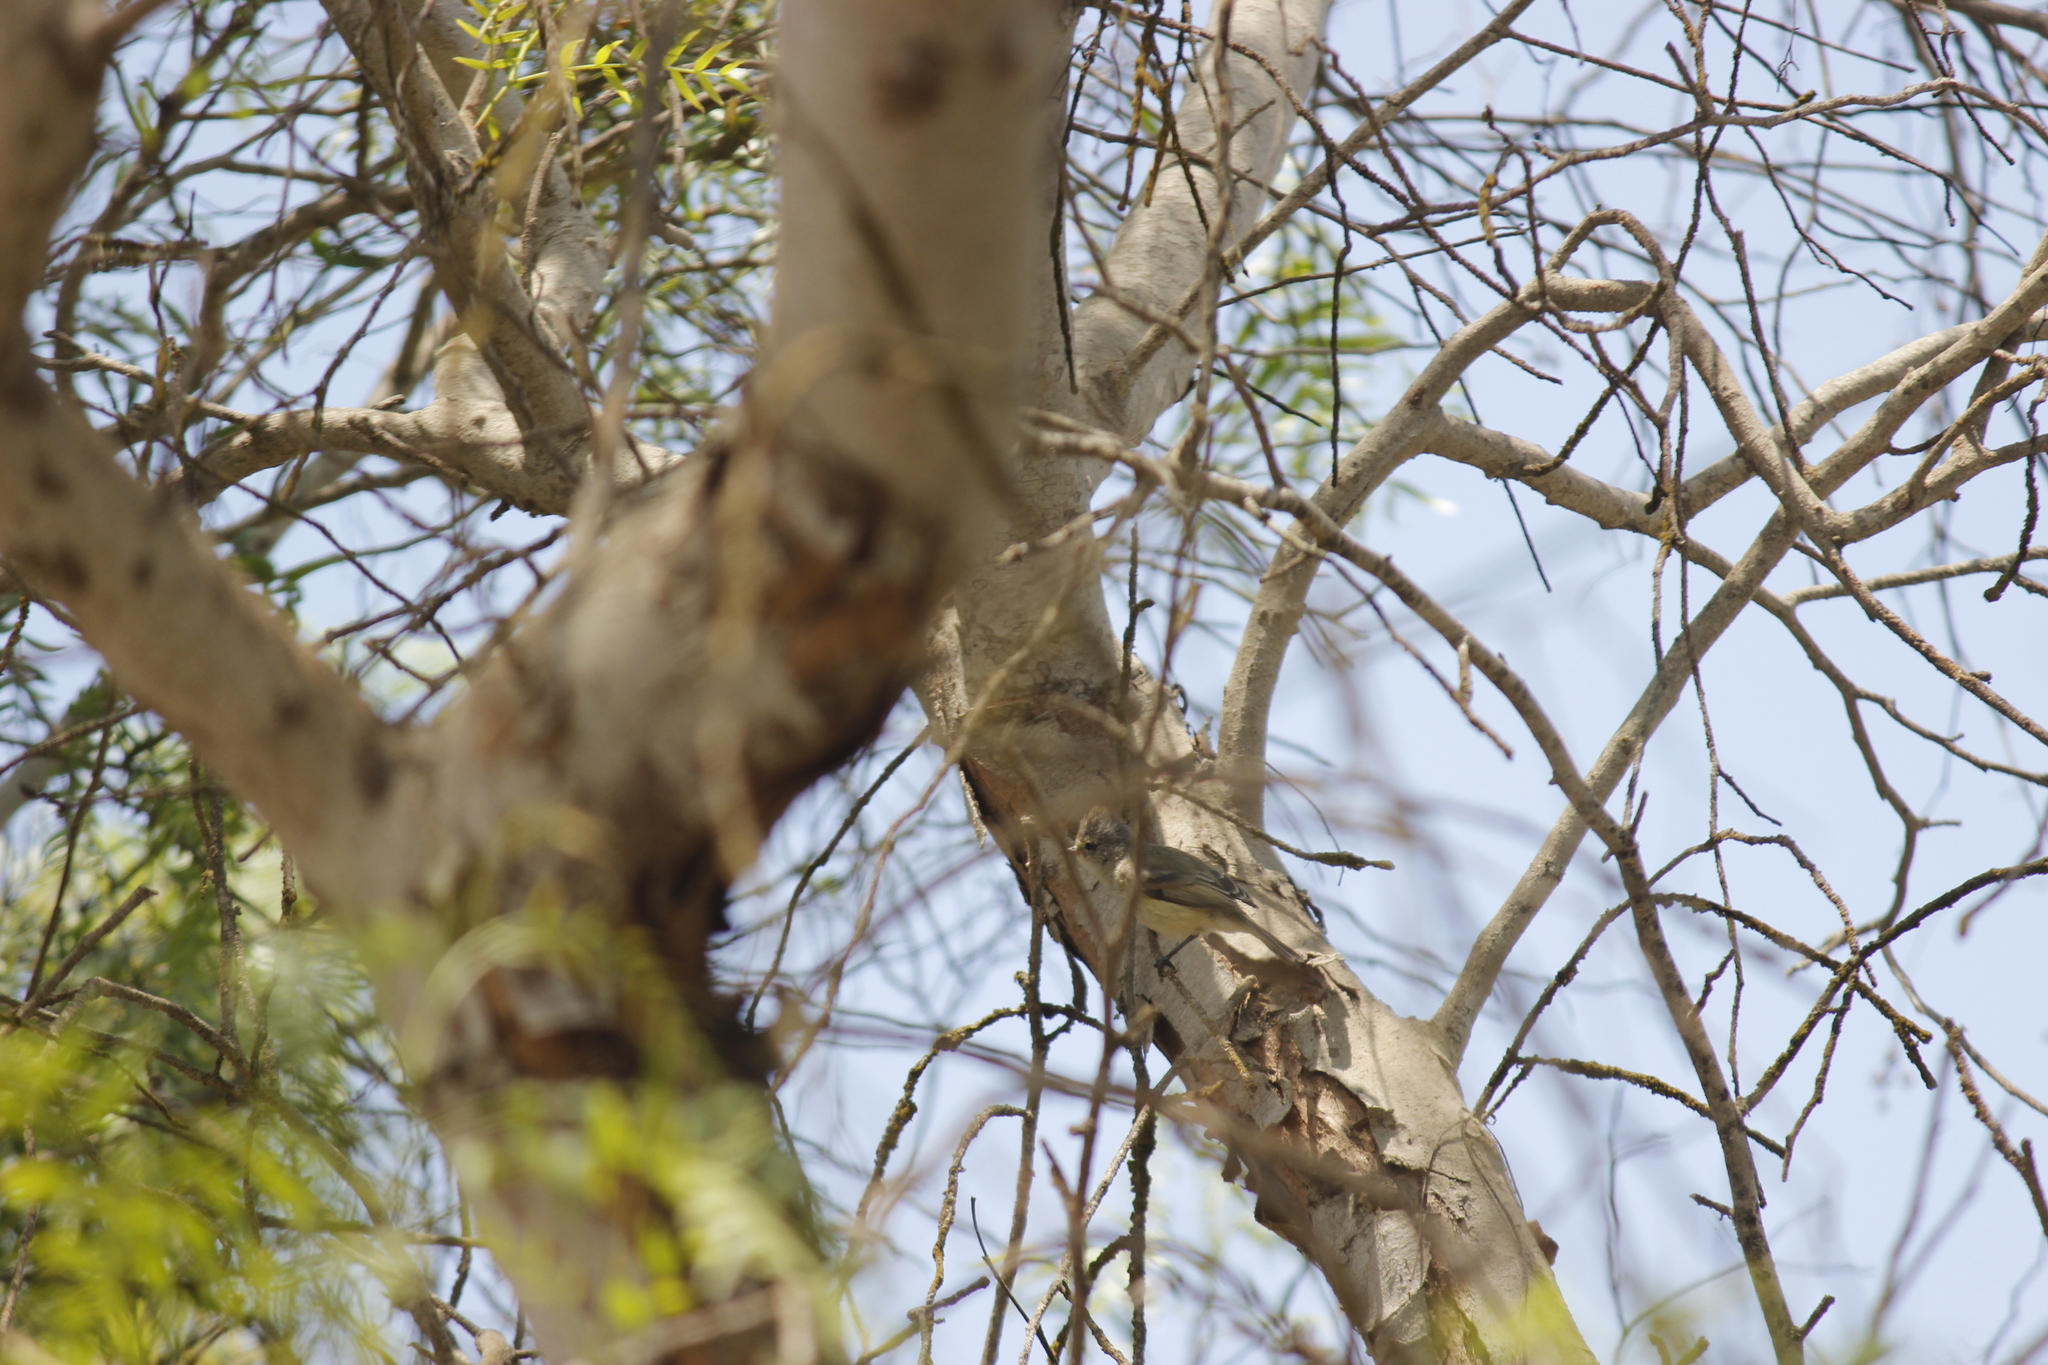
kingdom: Animalia
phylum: Chordata
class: Aves
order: Passeriformes
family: Tyrannidae
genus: Camptostoma
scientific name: Camptostoma obsoletum
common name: Southern beardless-tyrannulet
